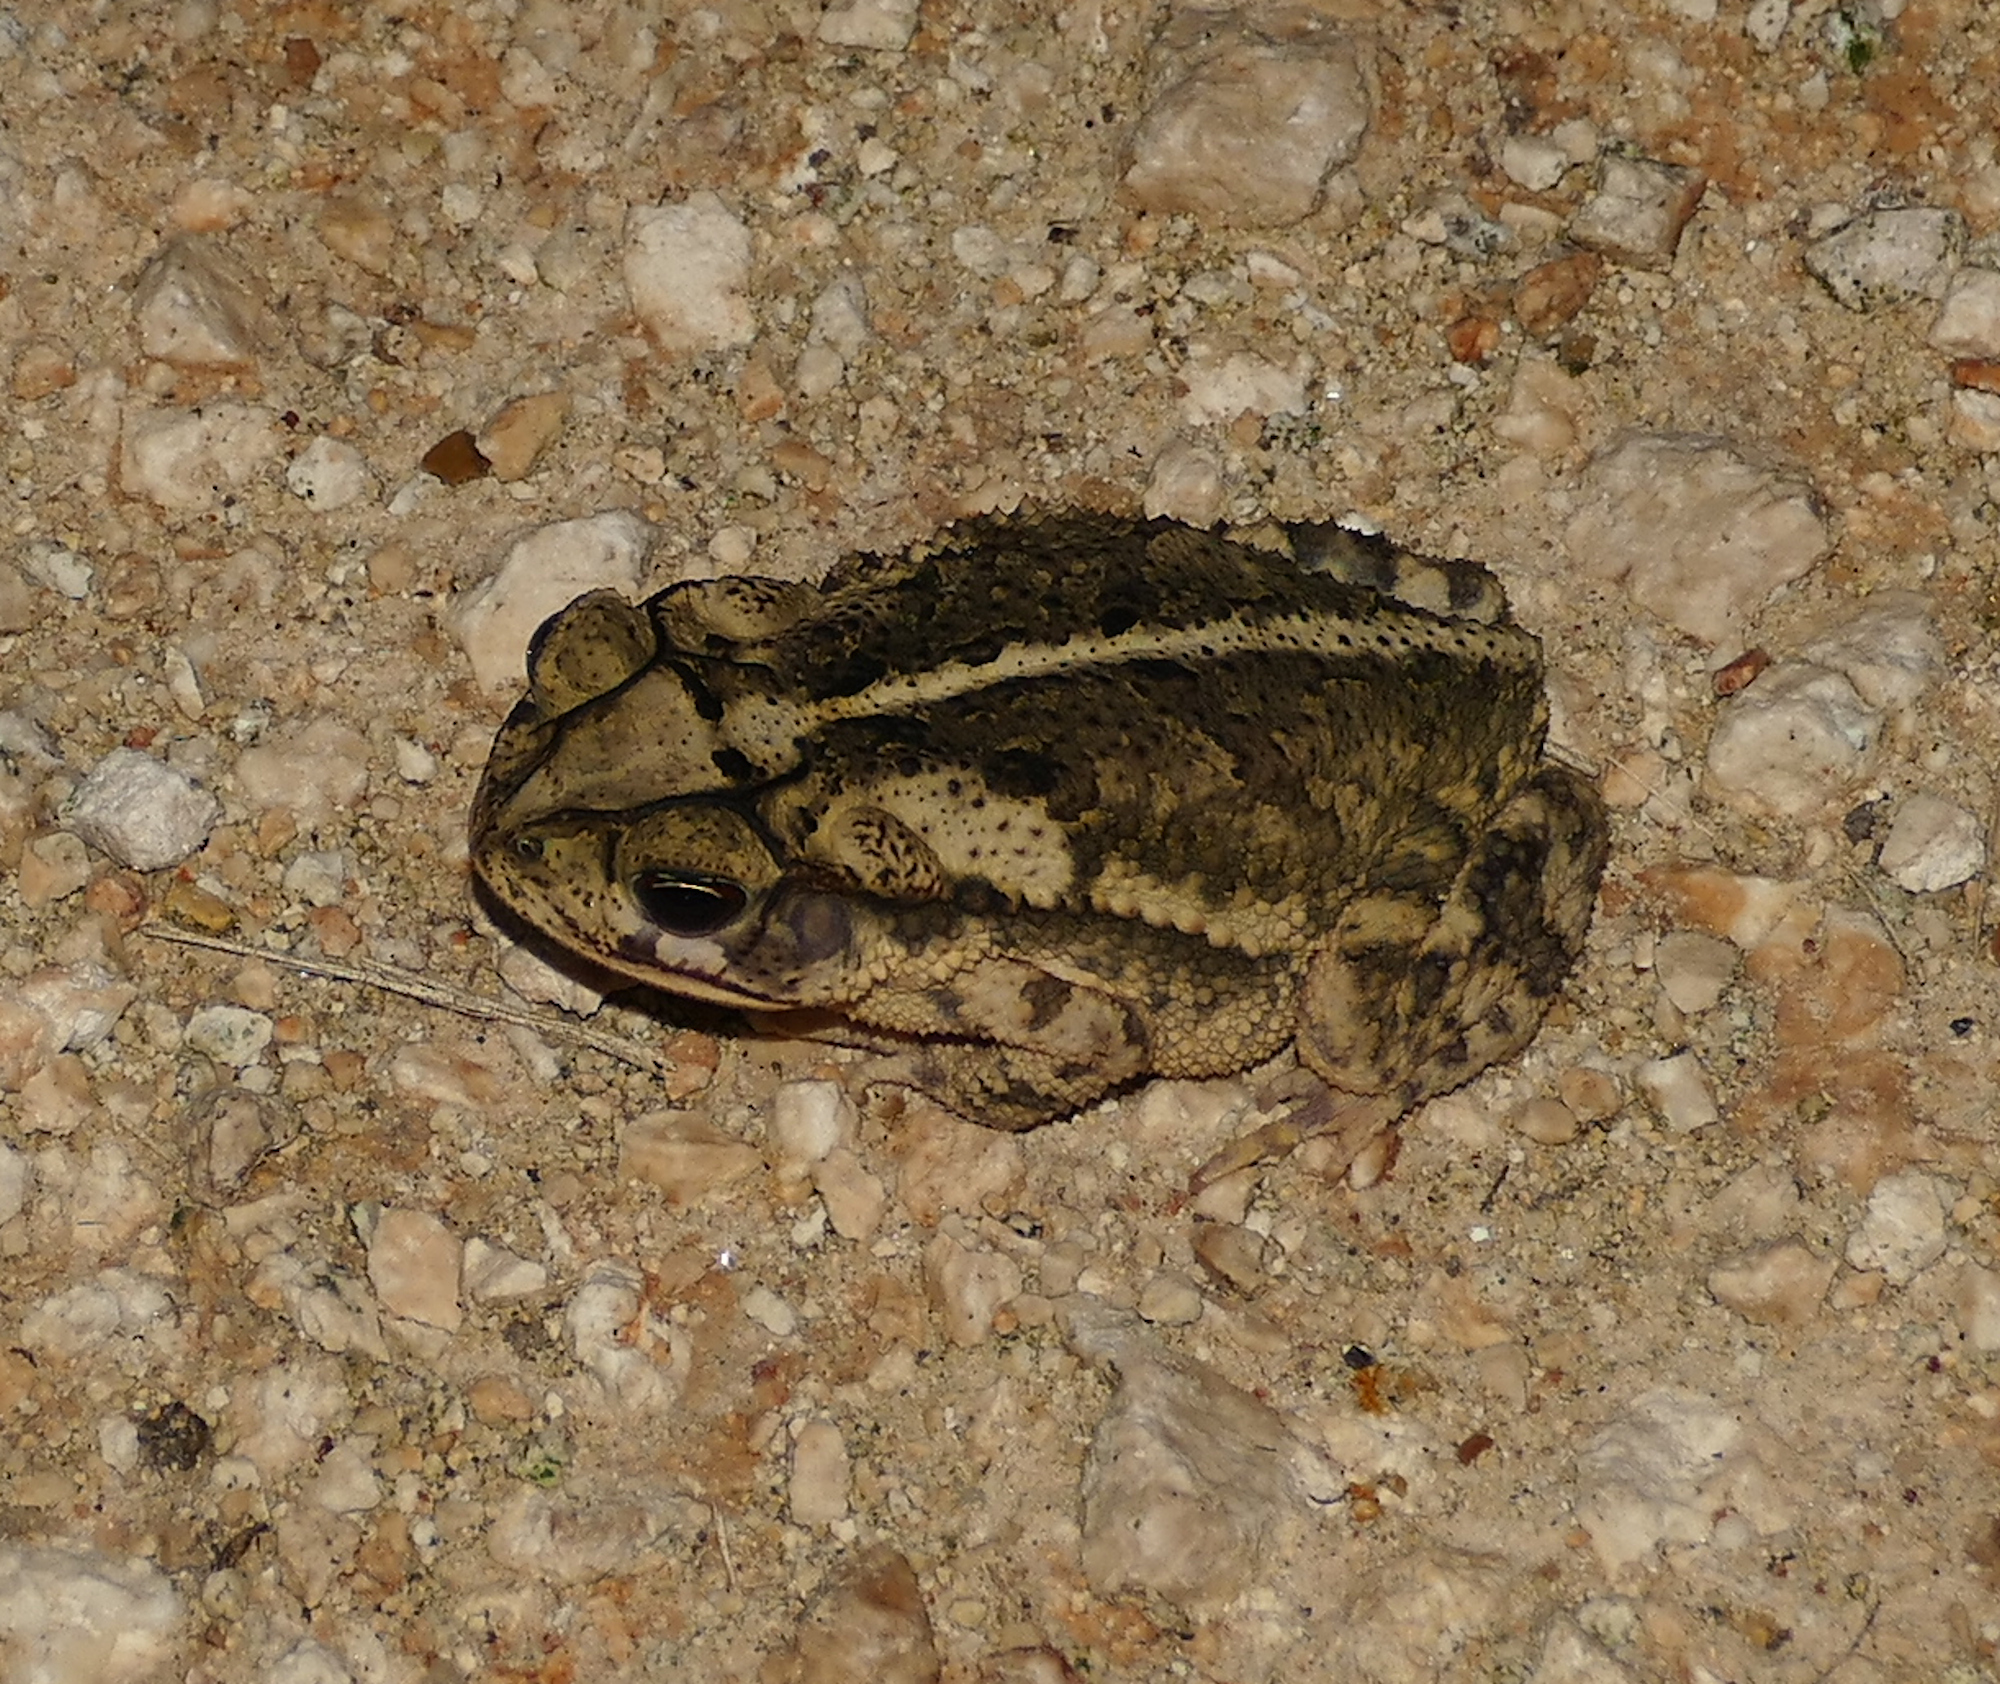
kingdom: Animalia
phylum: Chordata
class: Amphibia
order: Anura
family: Bufonidae
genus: Incilius
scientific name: Incilius nebulifer
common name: Gulf coast toad
